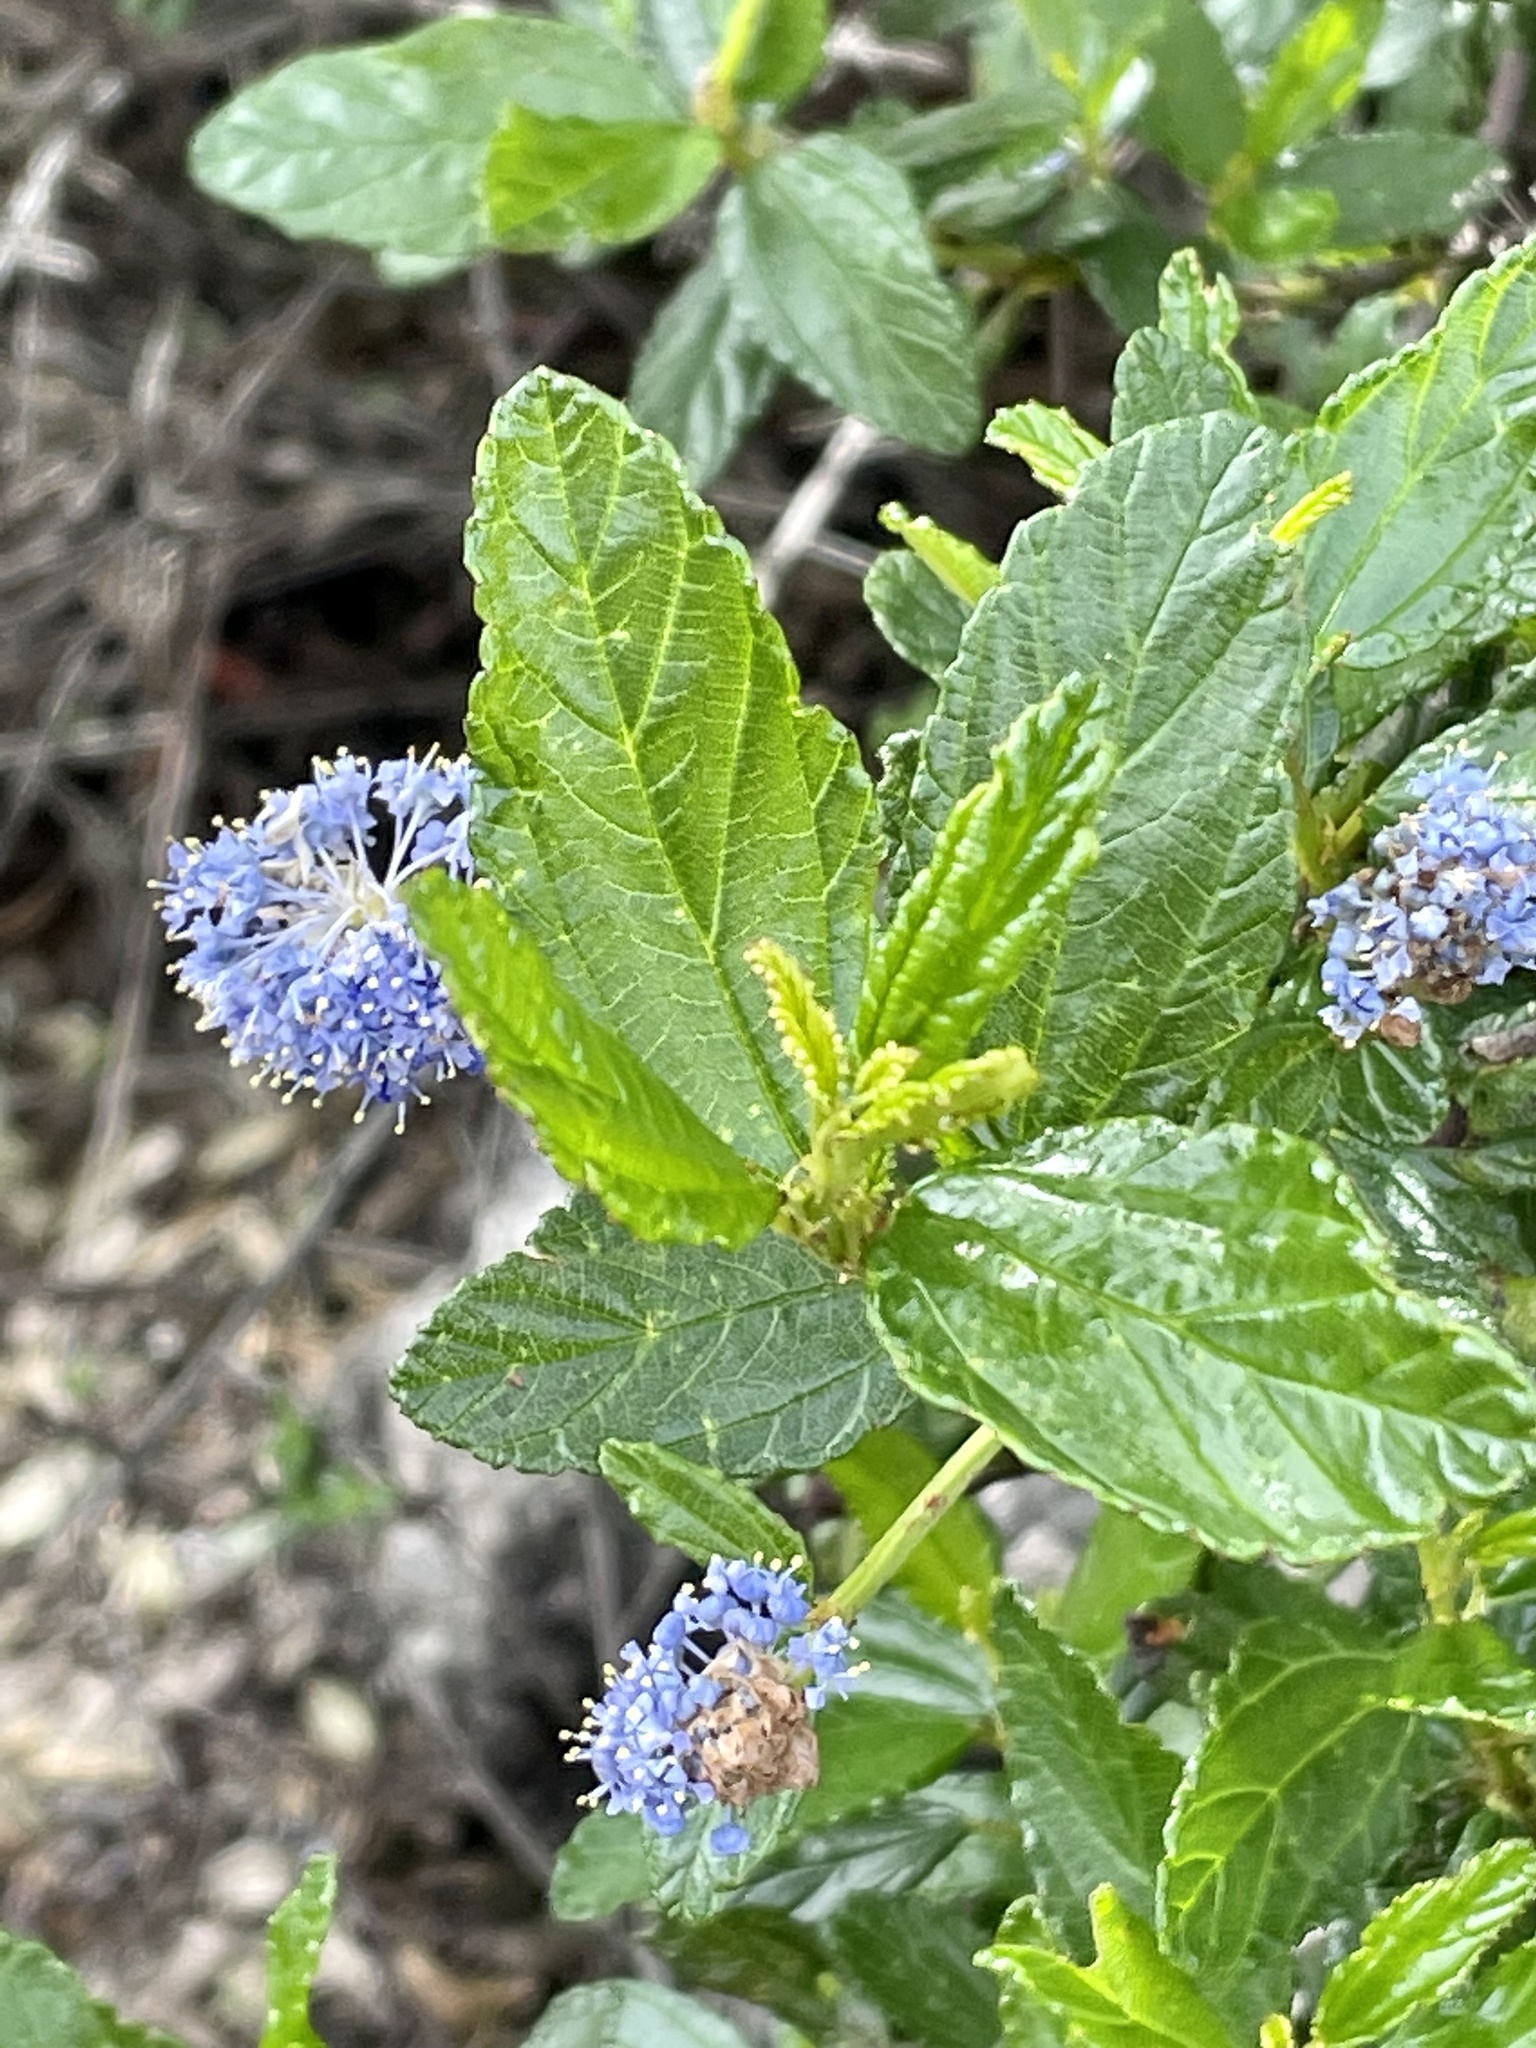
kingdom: Plantae
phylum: Tracheophyta
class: Magnoliopsida
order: Rosales
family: Rhamnaceae
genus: Ceanothus
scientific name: Ceanothus thyrsiflorus
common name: California-lilac
